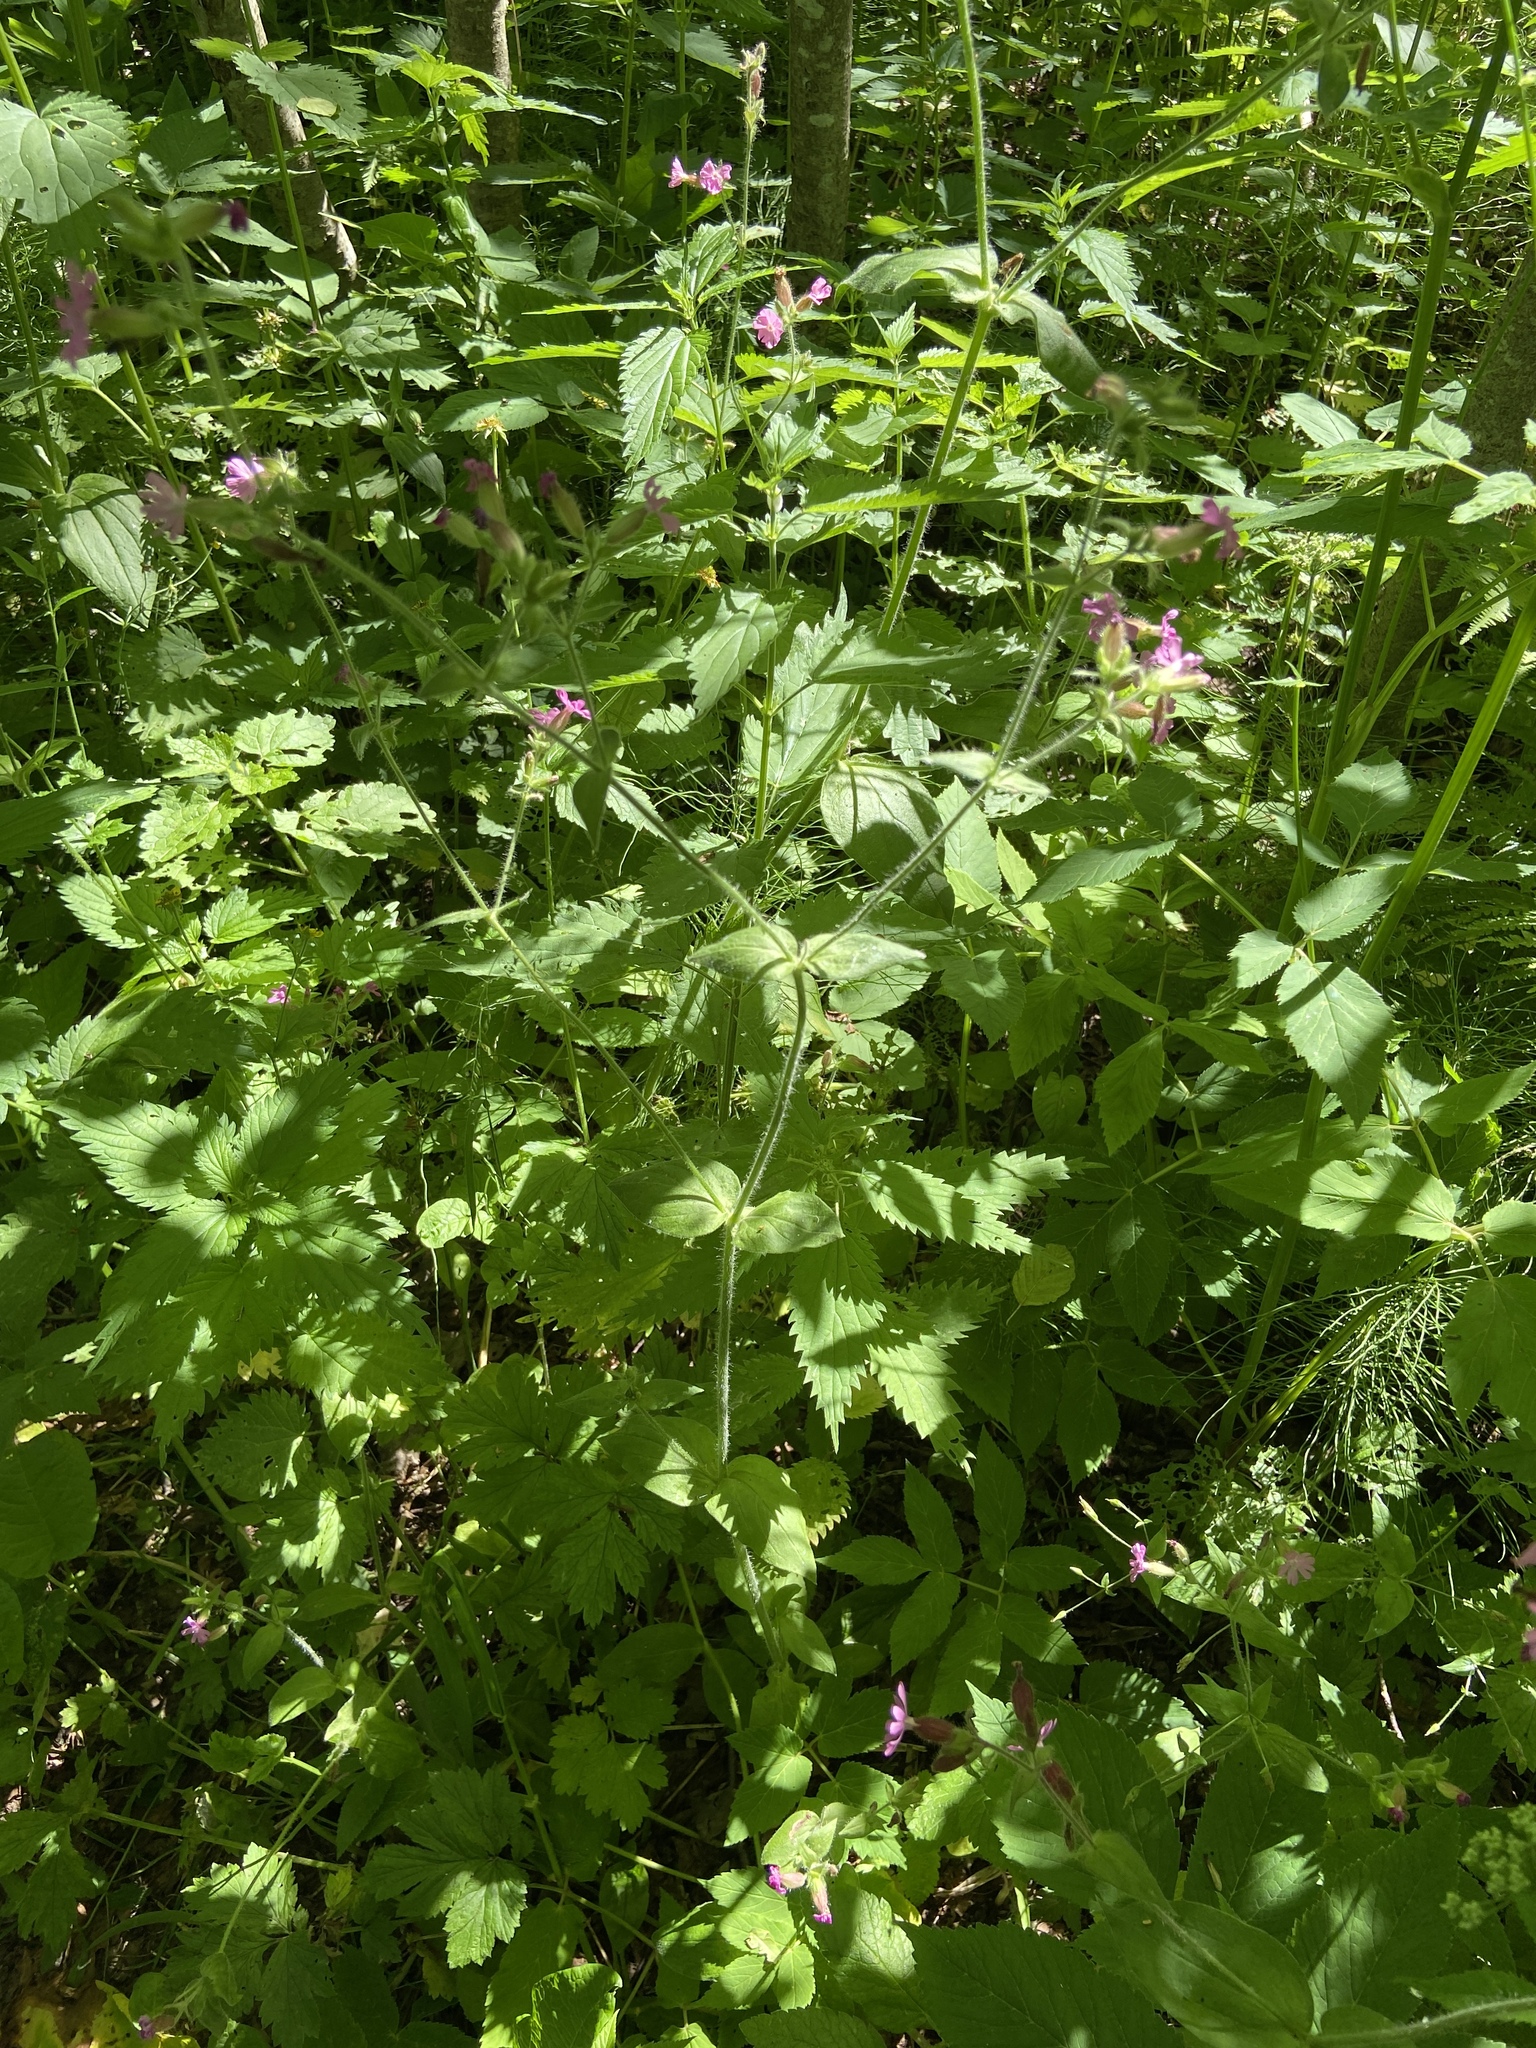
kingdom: Plantae
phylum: Tracheophyta
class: Magnoliopsida
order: Caryophyllales
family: Caryophyllaceae
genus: Silene
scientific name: Silene dioica
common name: Red campion
